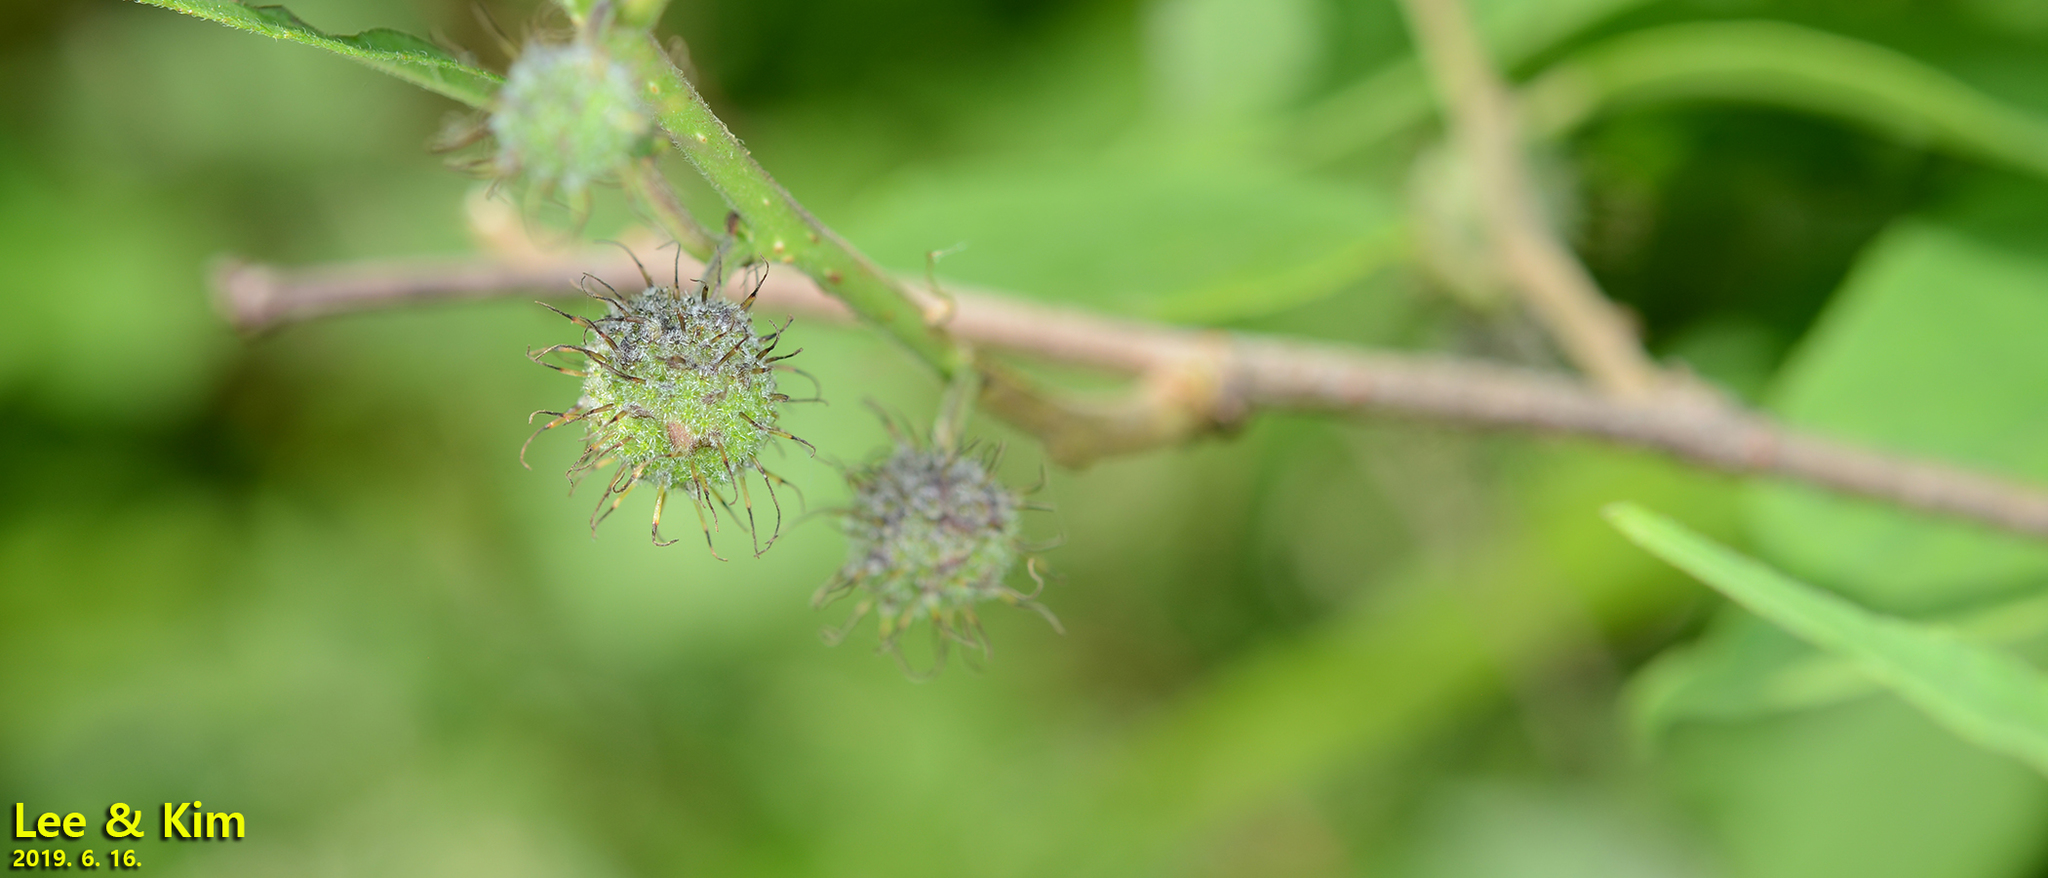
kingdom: Plantae
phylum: Tracheophyta
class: Magnoliopsida
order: Rosales
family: Moraceae
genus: Broussonetia
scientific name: Broussonetia papyrifera
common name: Paper mulberry
